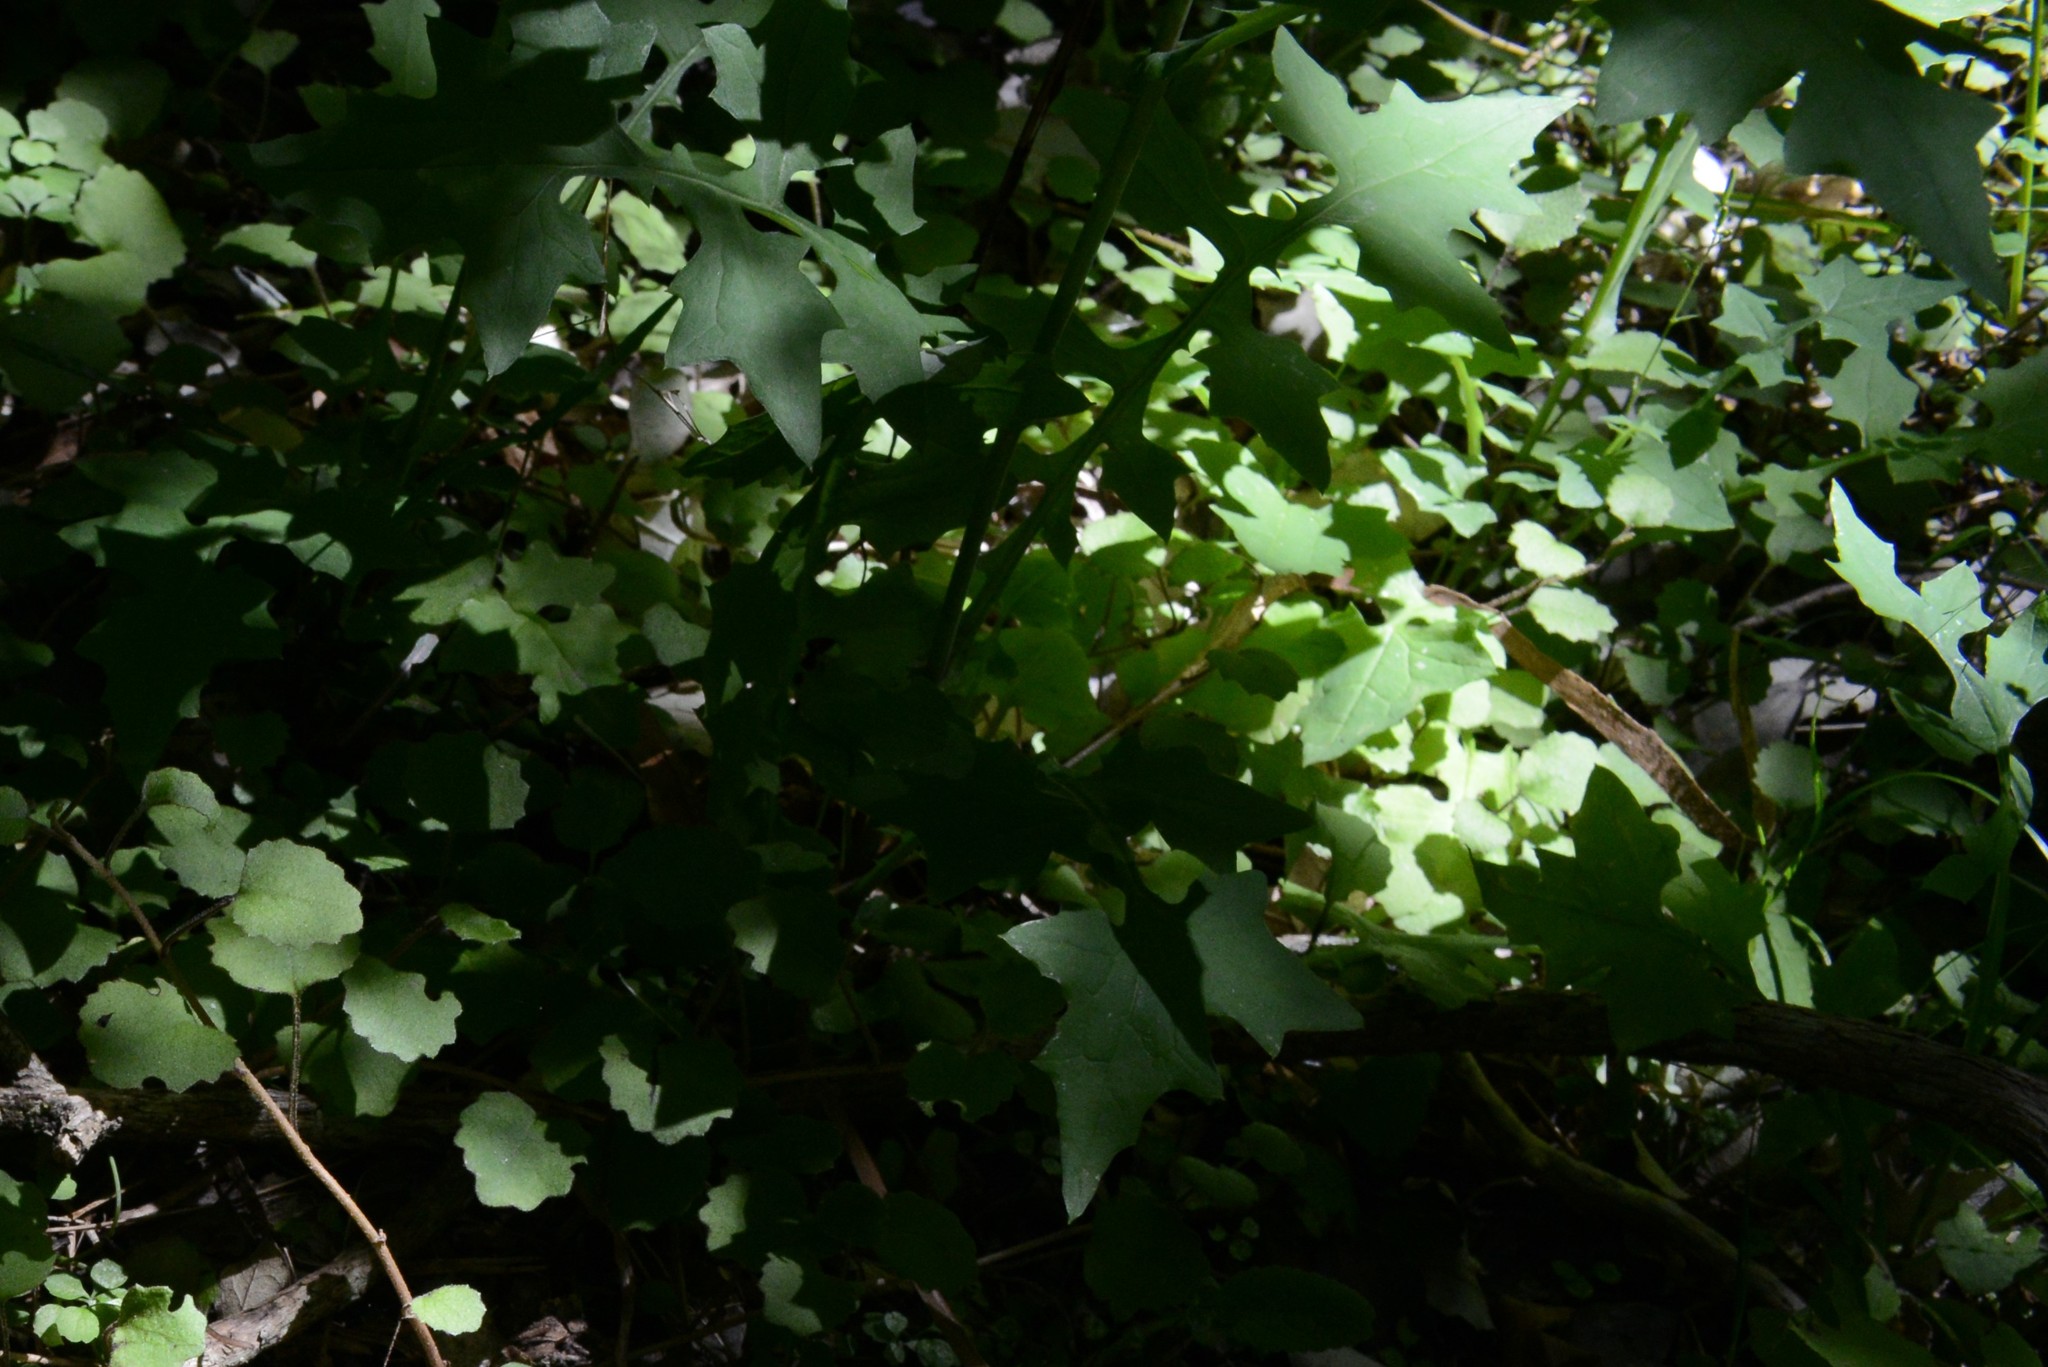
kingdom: Plantae
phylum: Tracheophyta
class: Magnoliopsida
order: Asterales
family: Asteraceae
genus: Mycelis
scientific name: Mycelis muralis
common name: Wall lettuce
